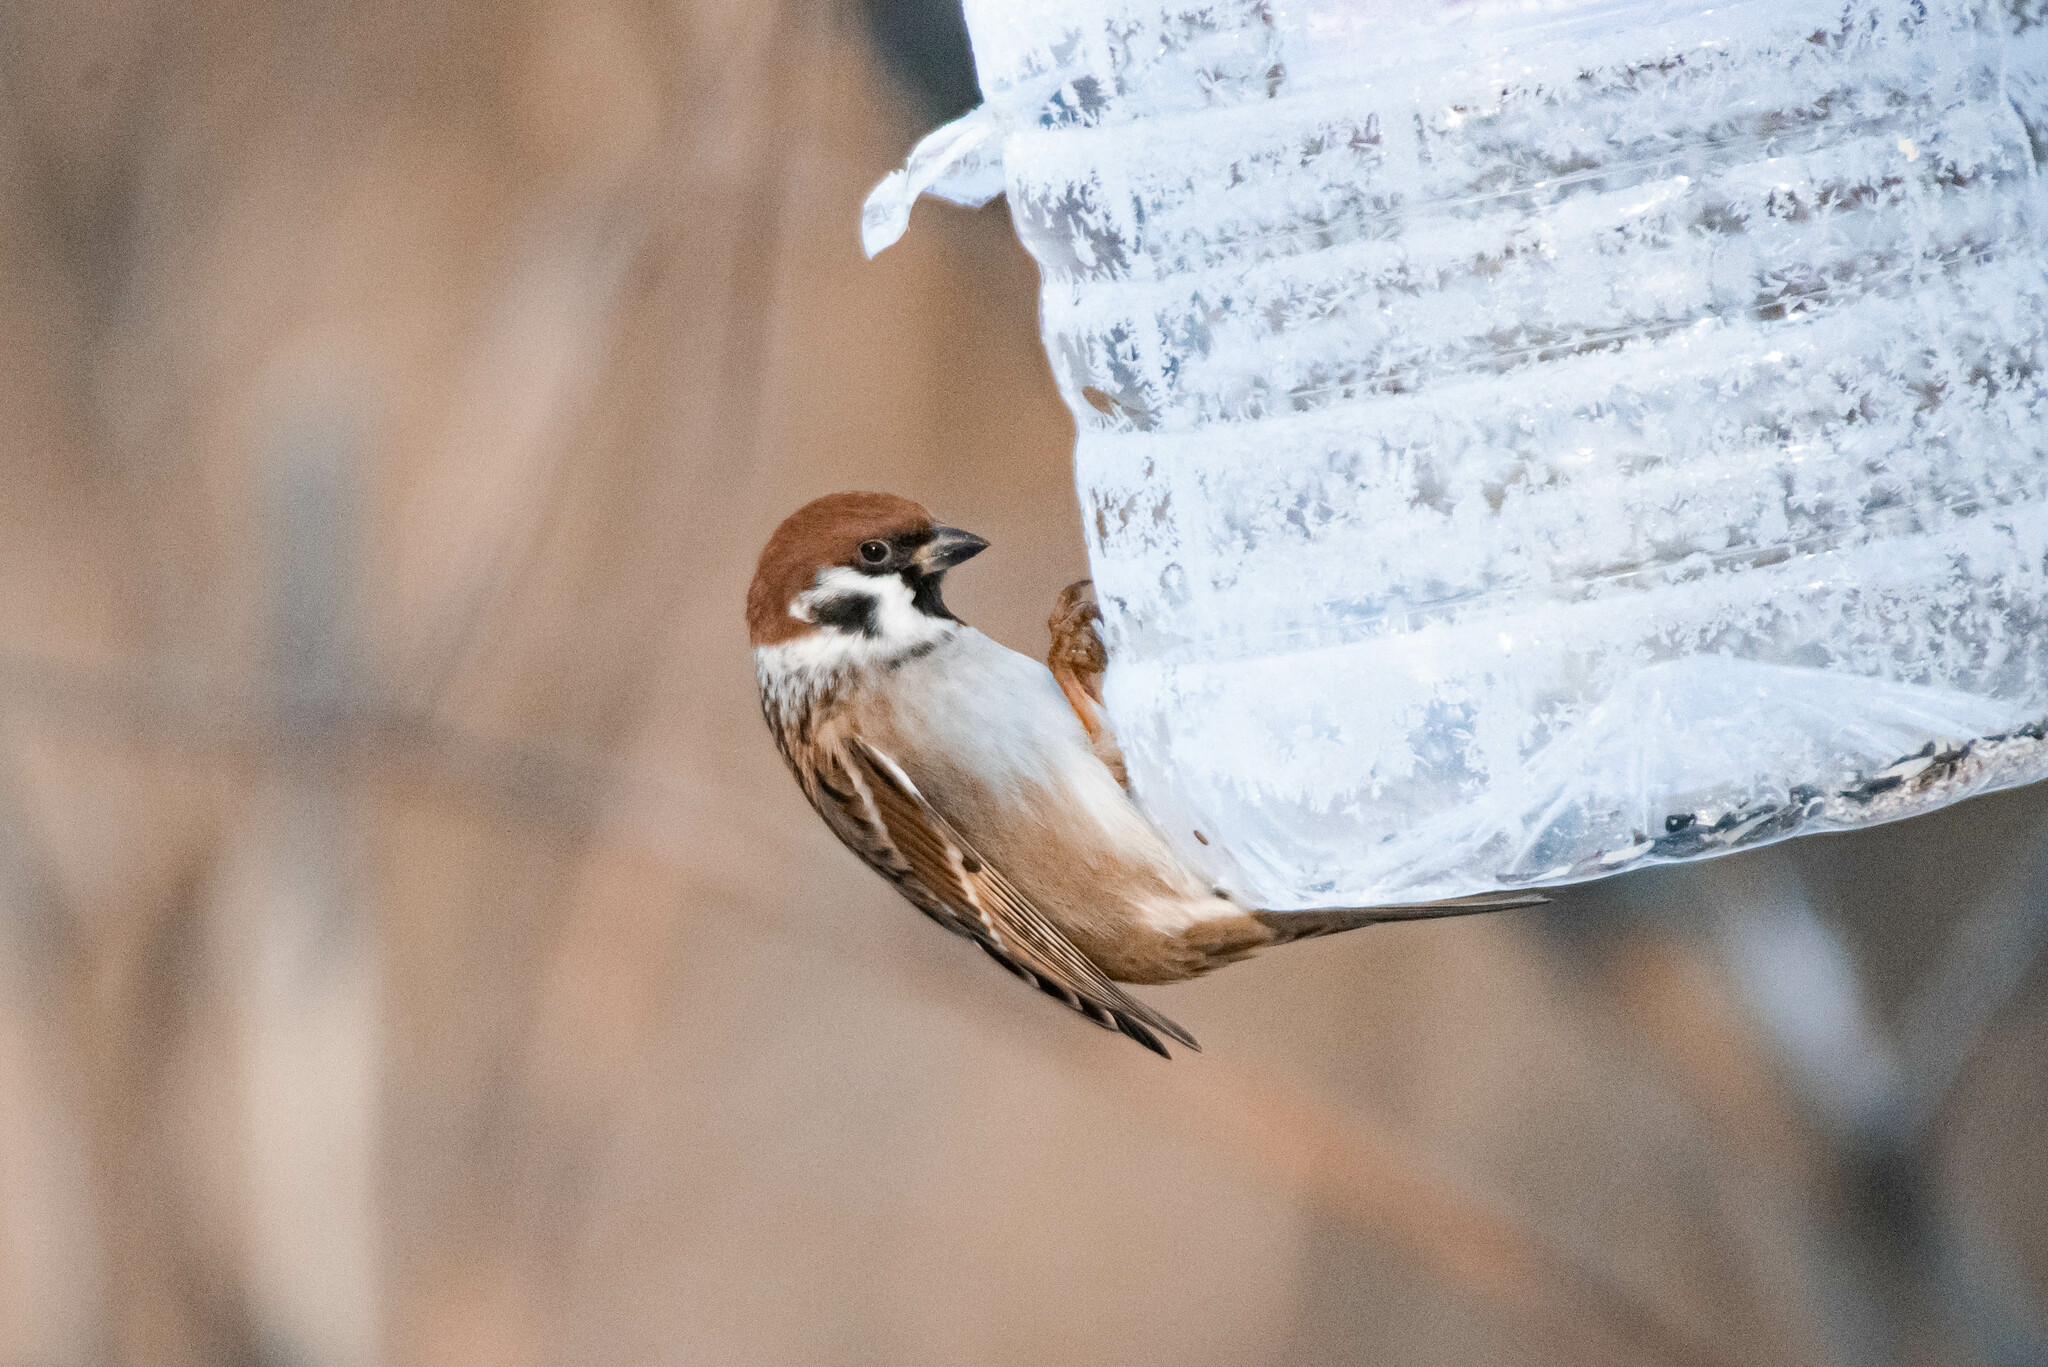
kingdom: Animalia
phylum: Chordata
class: Aves
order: Passeriformes
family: Passeridae
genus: Passer
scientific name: Passer montanus
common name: Eurasian tree sparrow
